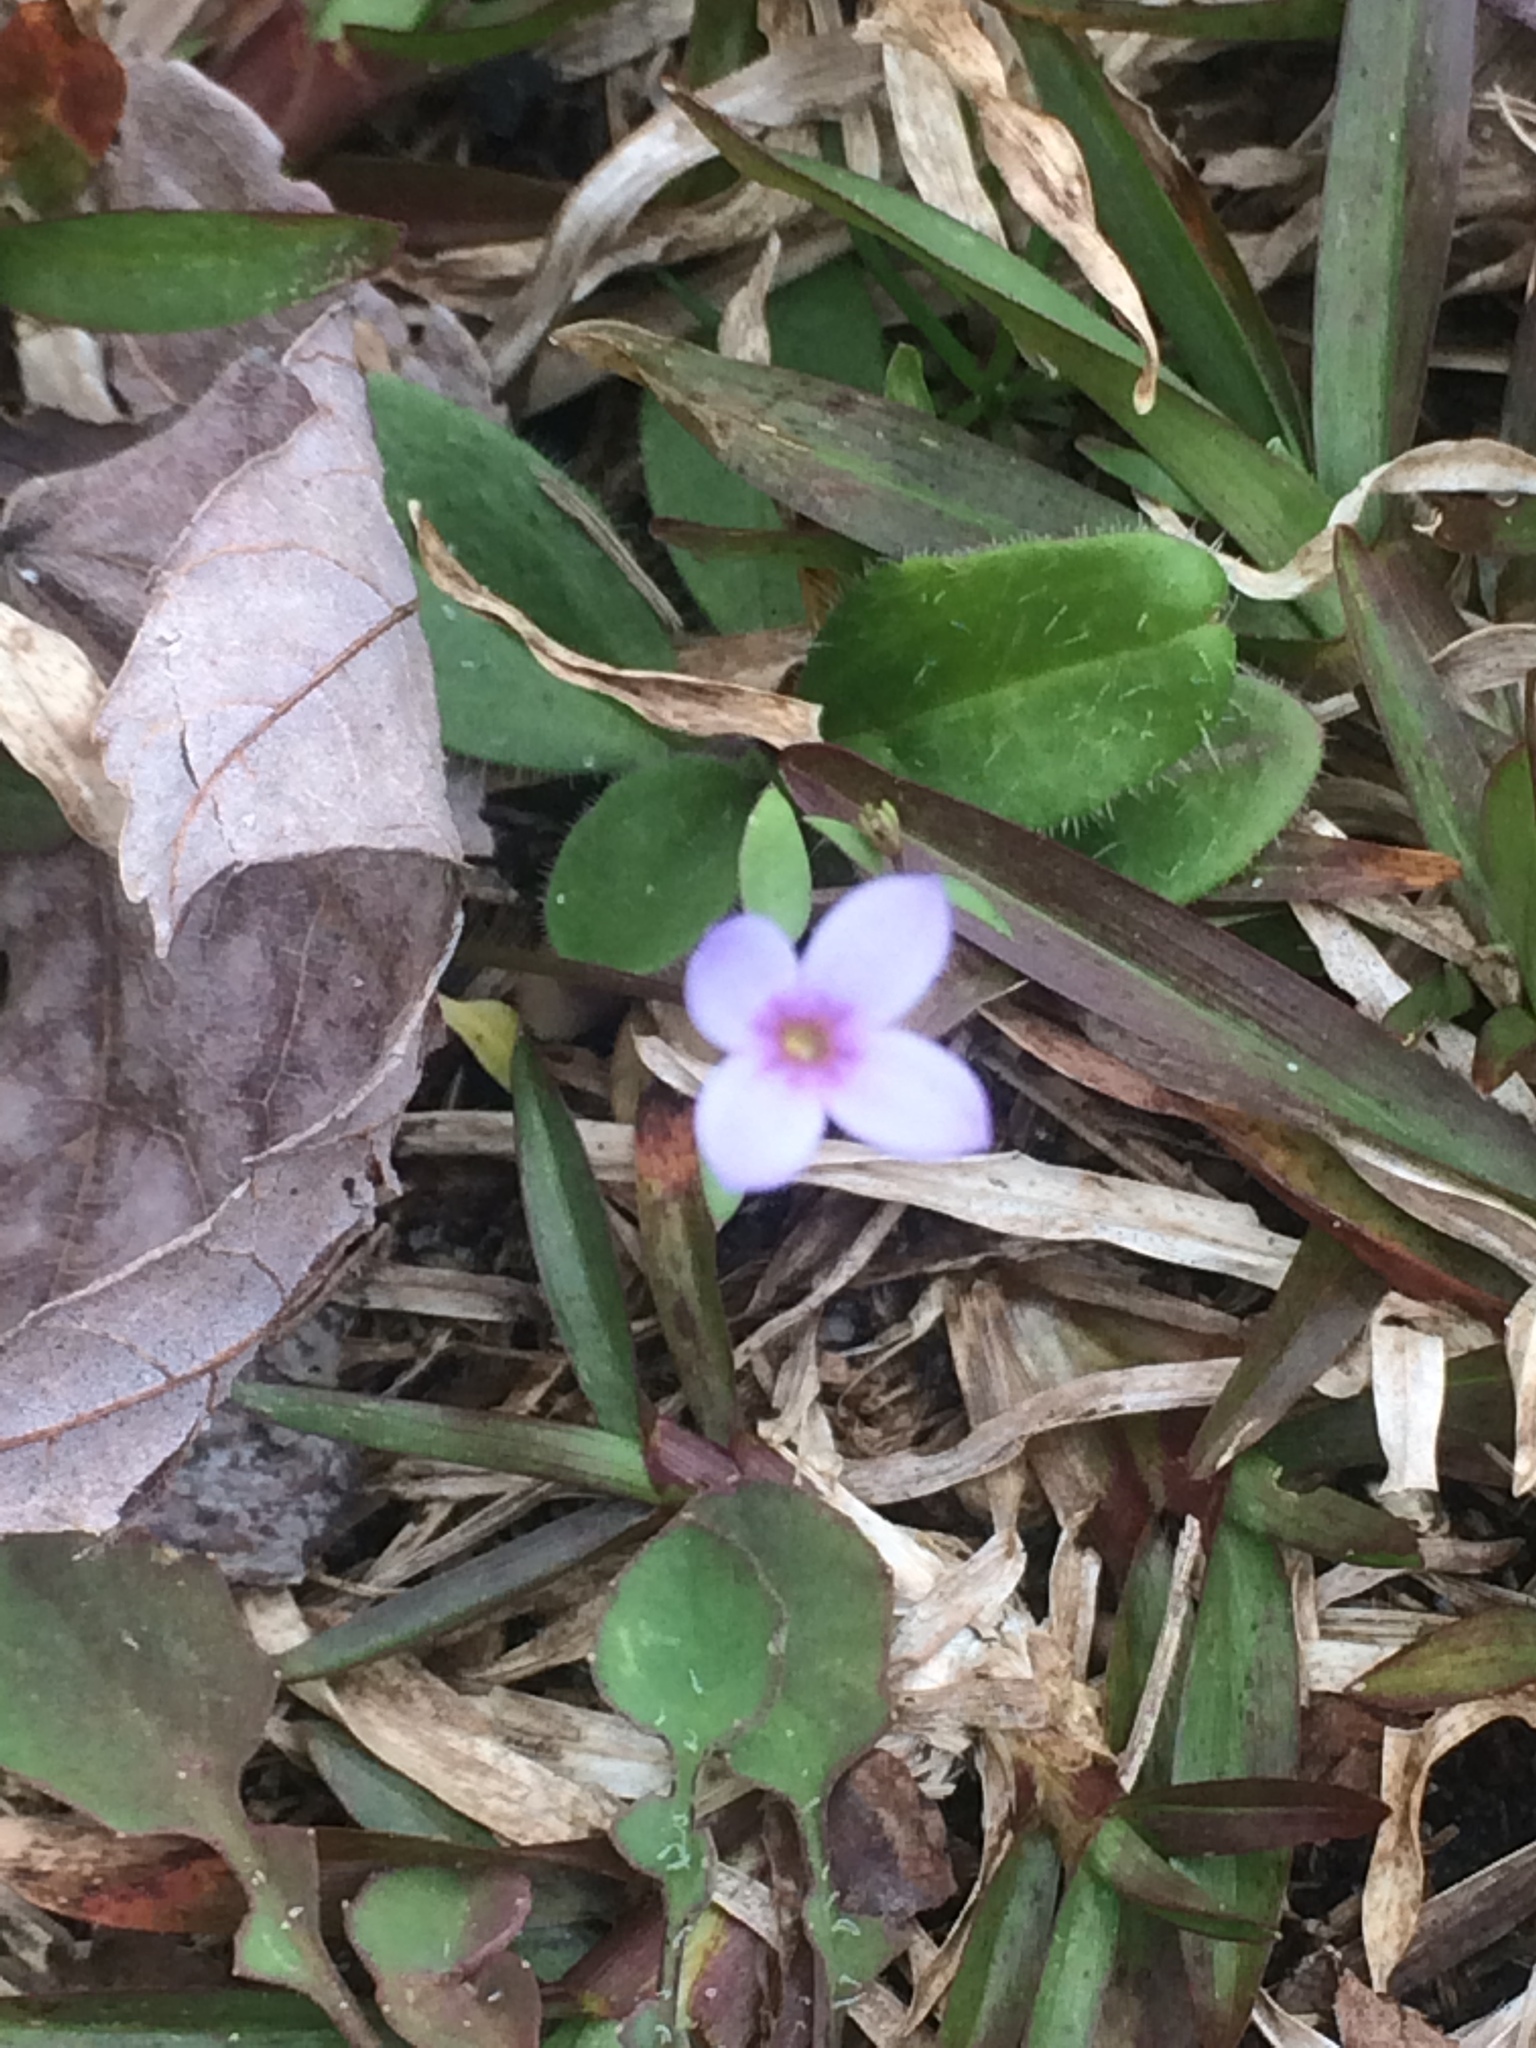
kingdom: Plantae
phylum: Tracheophyta
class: Magnoliopsida
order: Gentianales
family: Rubiaceae
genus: Houstonia
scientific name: Houstonia pusilla
